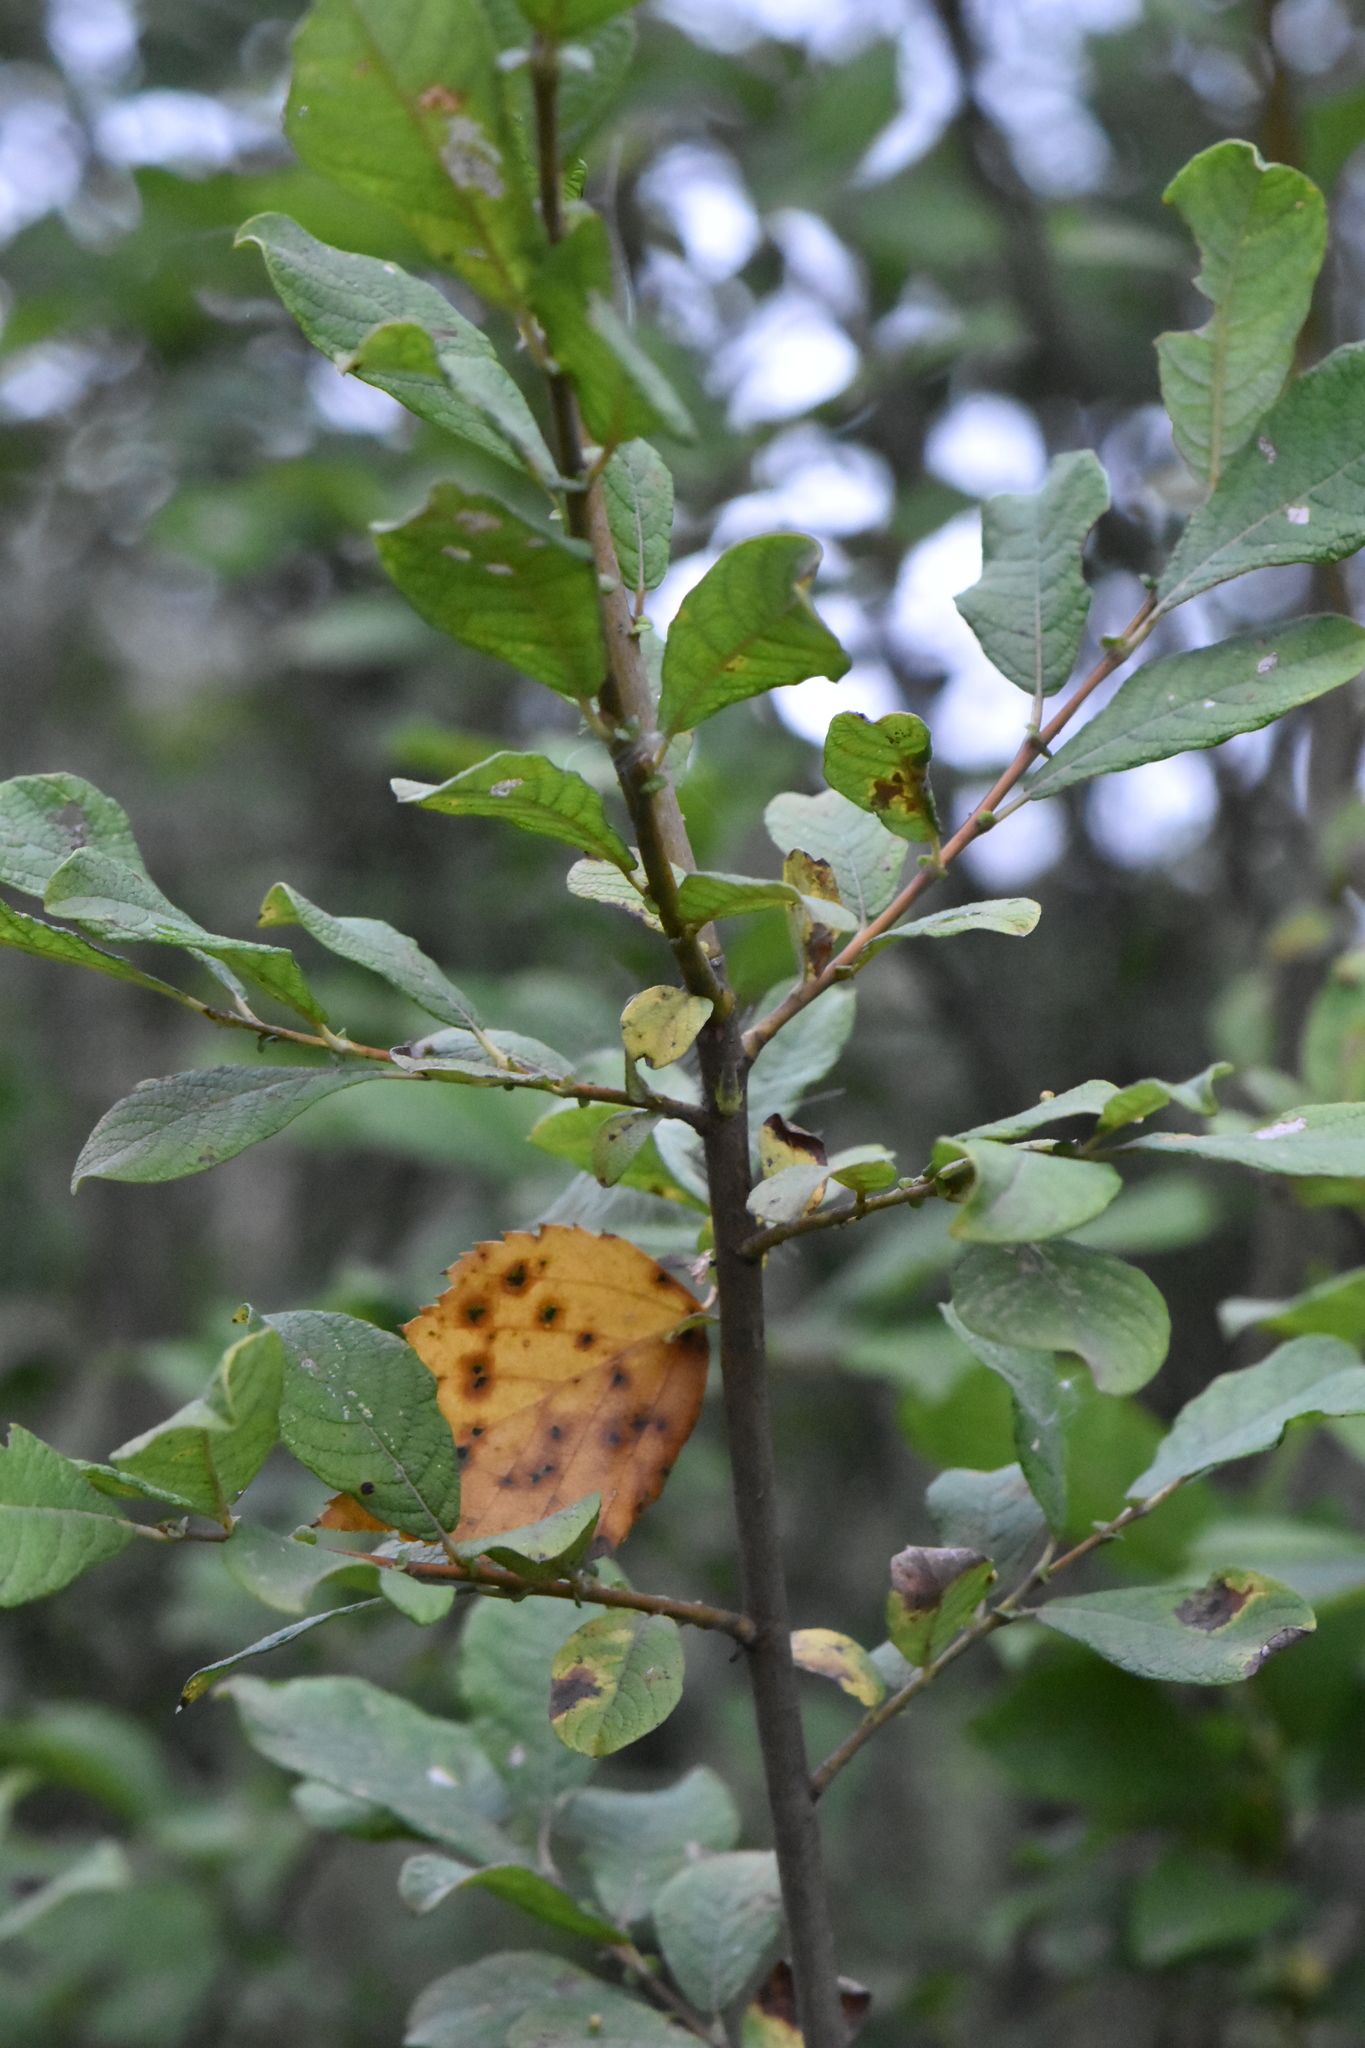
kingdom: Plantae
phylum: Tracheophyta
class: Magnoliopsida
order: Malpighiales
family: Salicaceae
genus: Salix
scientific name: Salix aurita
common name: Eared willow
